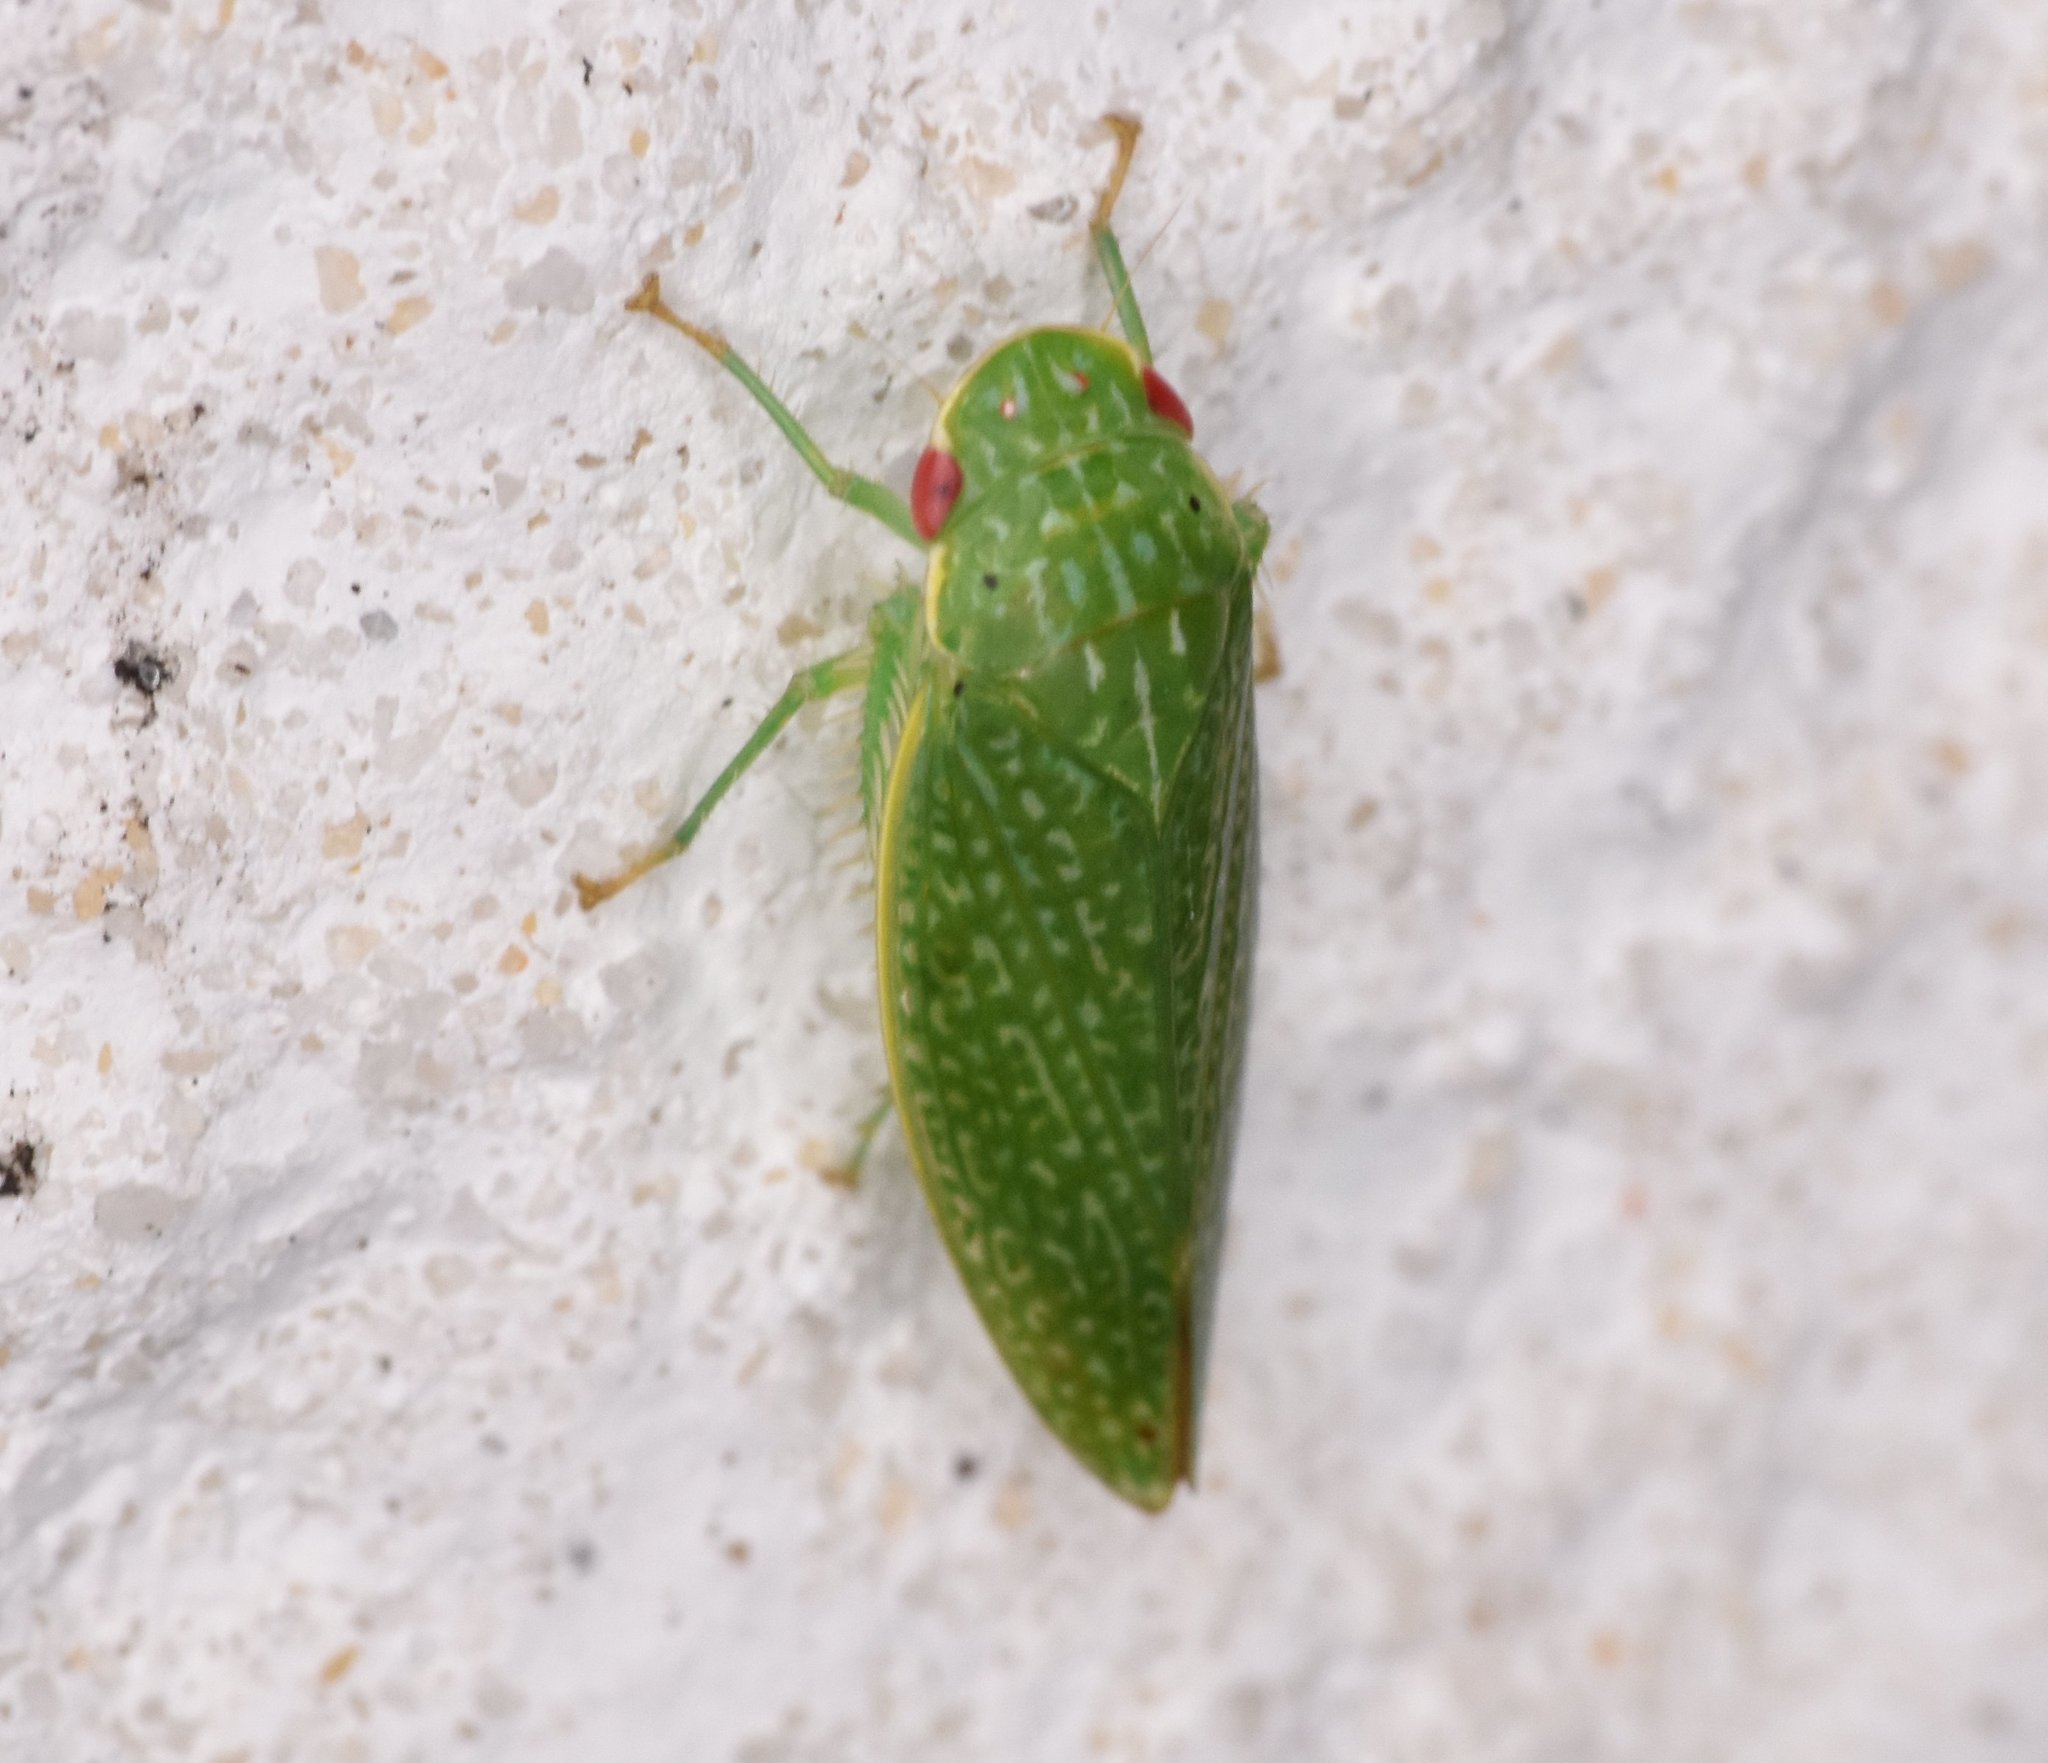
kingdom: Animalia
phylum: Arthropoda
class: Insecta
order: Hemiptera
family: Cicadellidae
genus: Rugosana
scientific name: Rugosana querci
